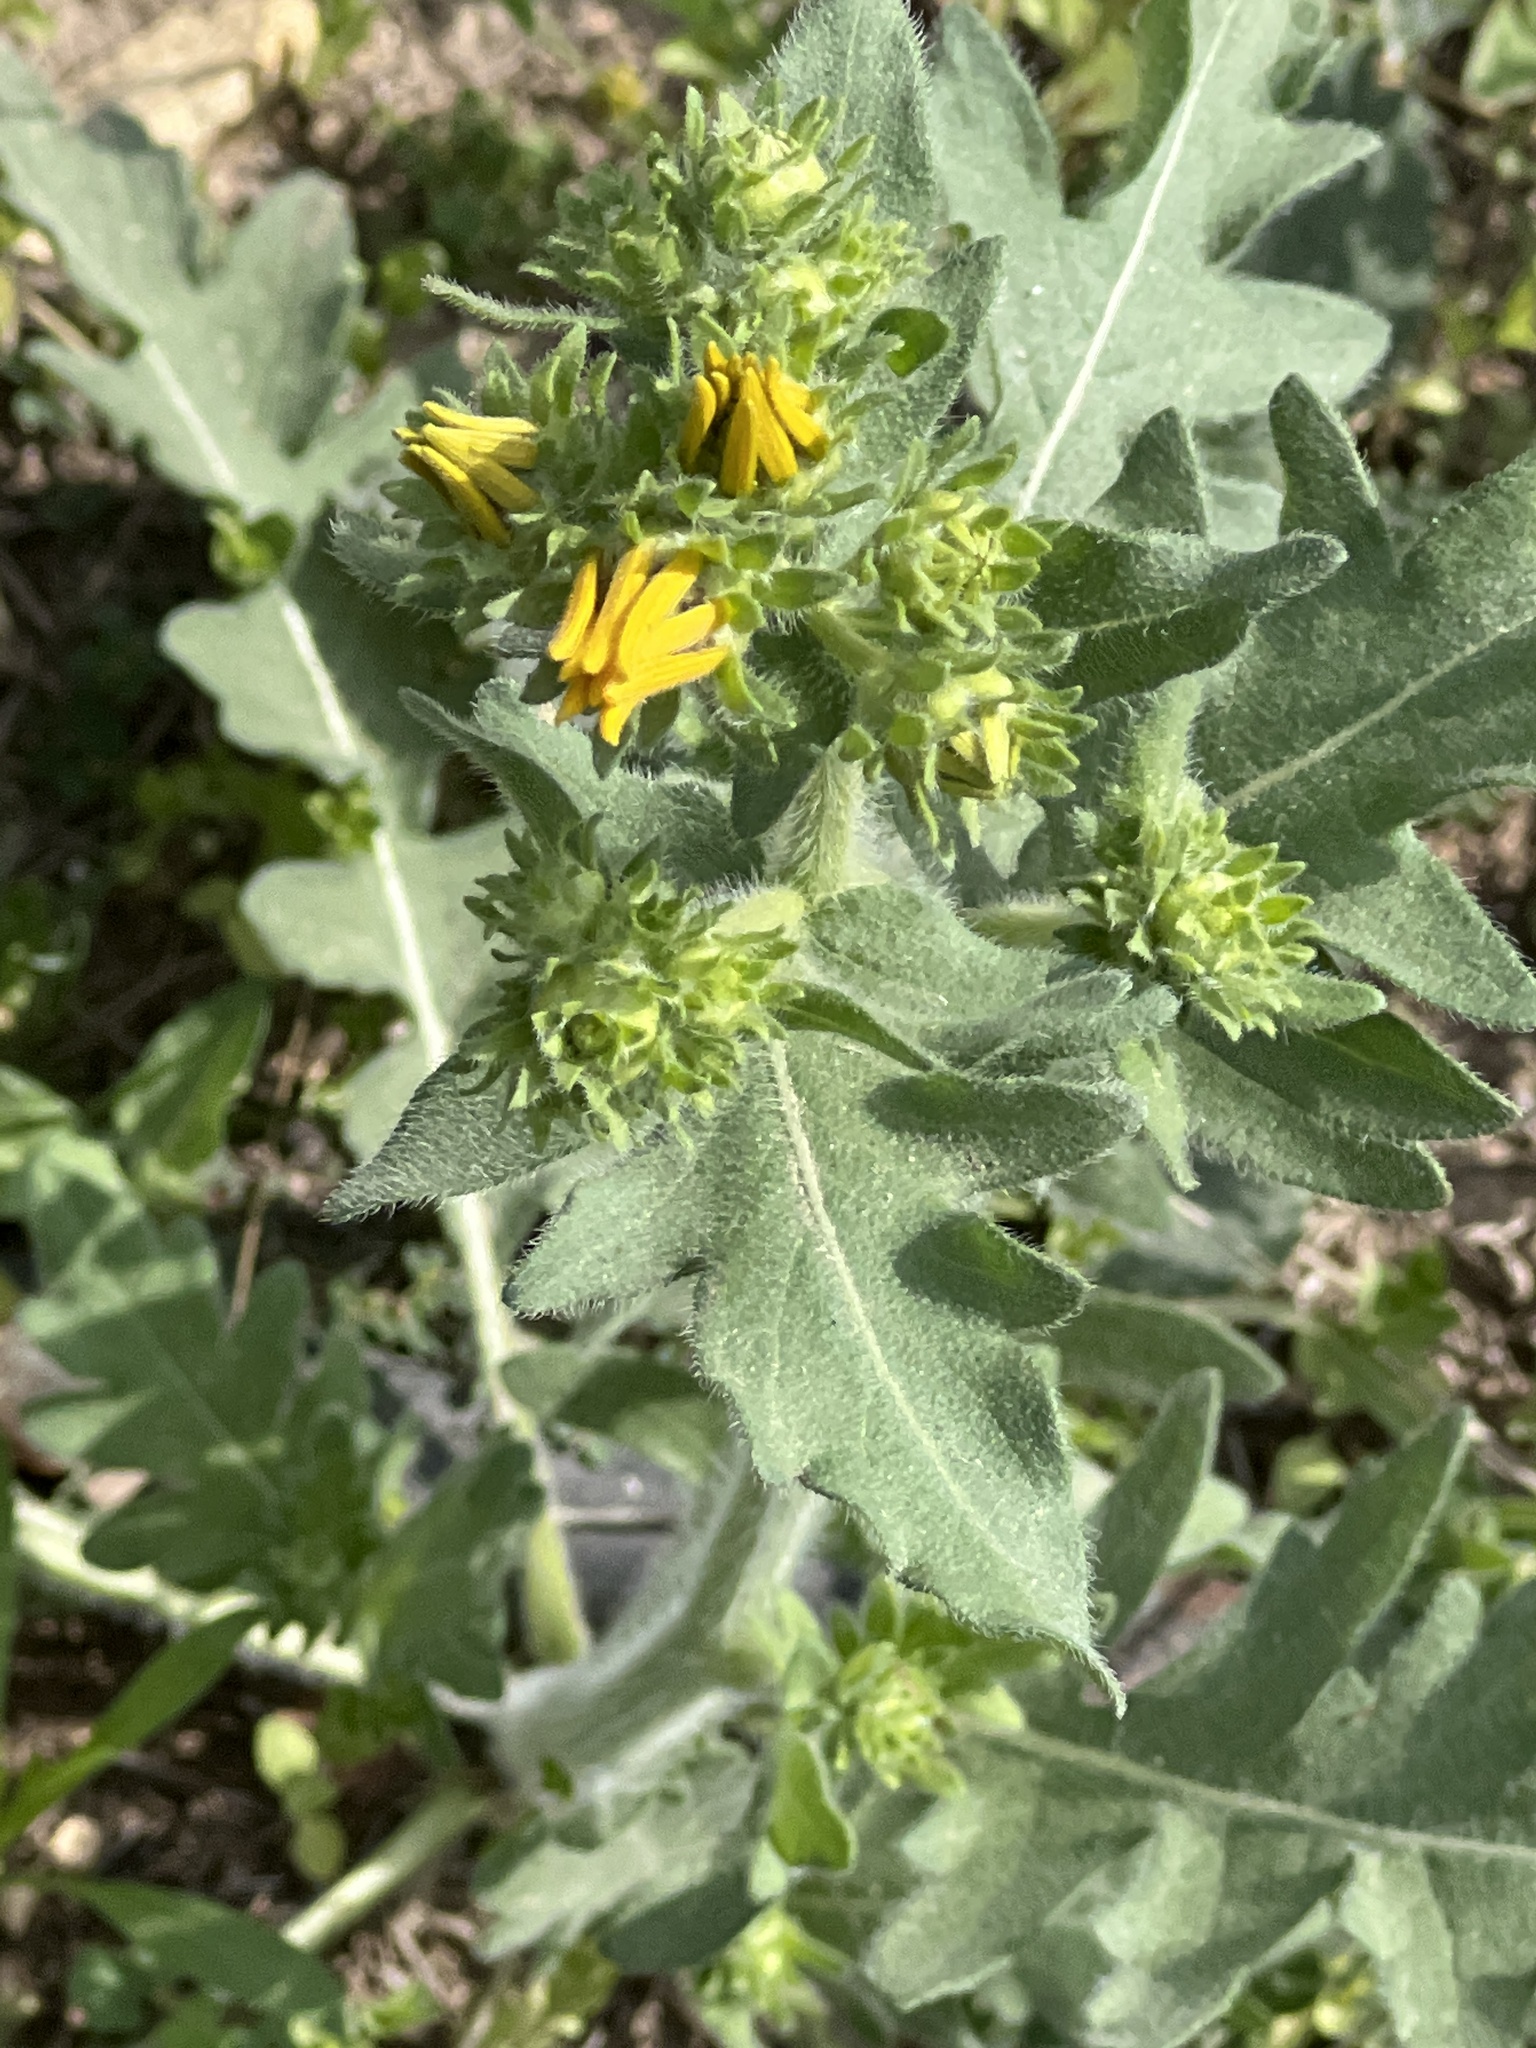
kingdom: Plantae
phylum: Tracheophyta
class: Magnoliopsida
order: Asterales
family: Asteraceae
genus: Engelmannia
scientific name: Engelmannia peristenia
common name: Engelmann's daisy
